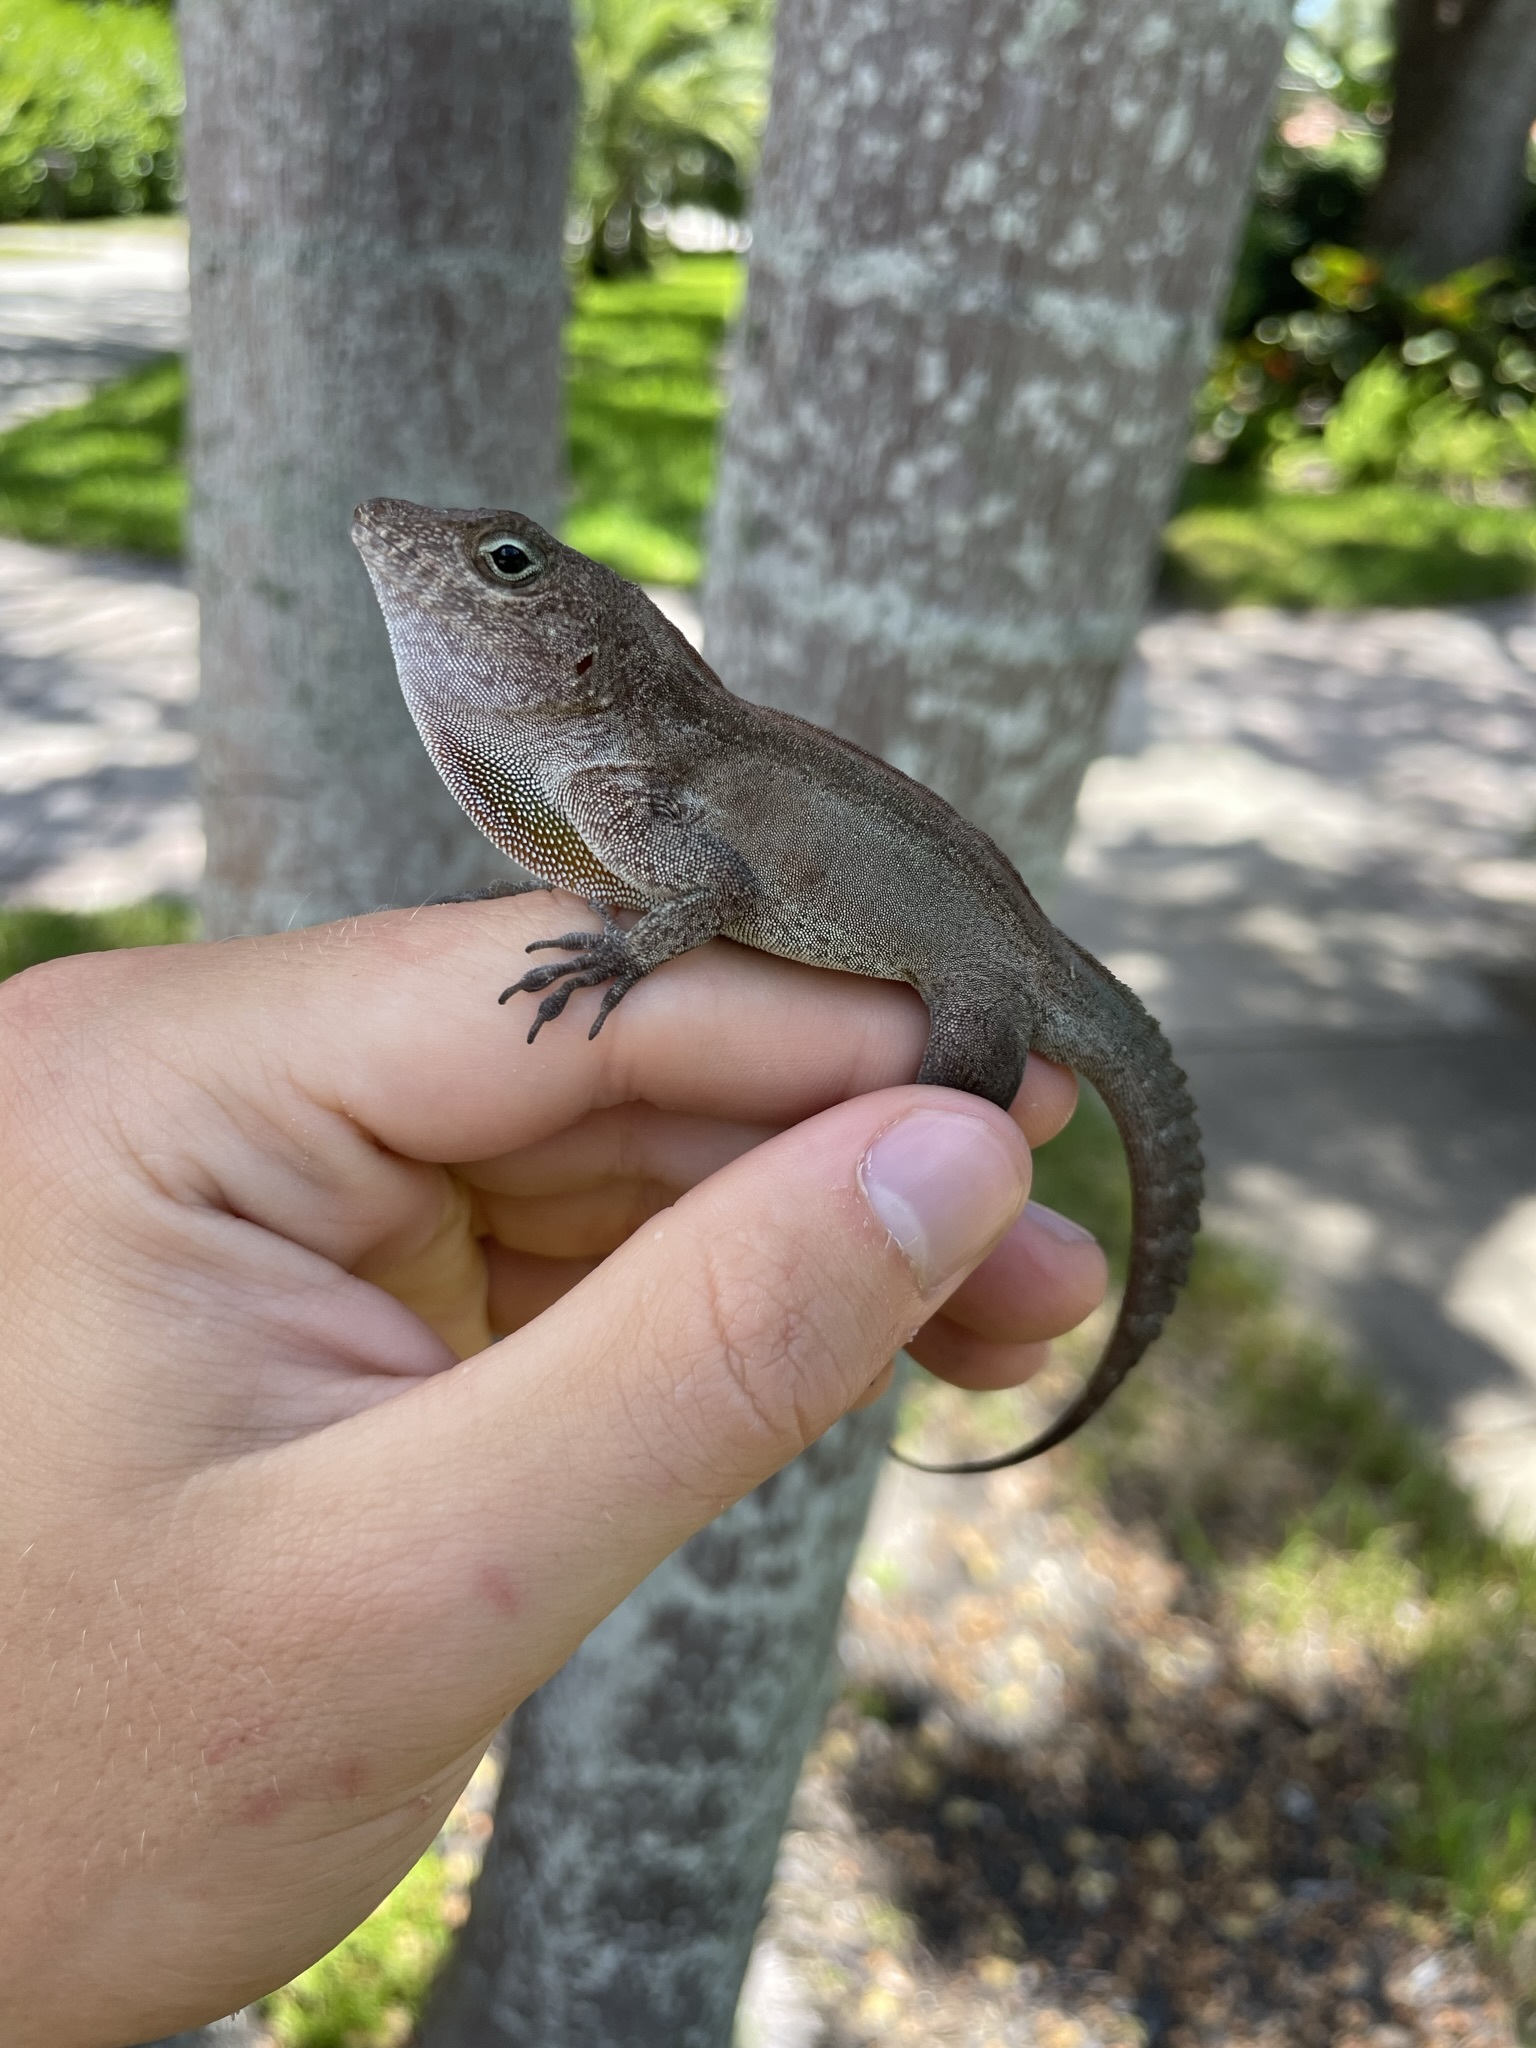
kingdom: Animalia
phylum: Chordata
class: Squamata
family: Dactyloidae
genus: Anolis
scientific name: Anolis cristatellus
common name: Crested anole
